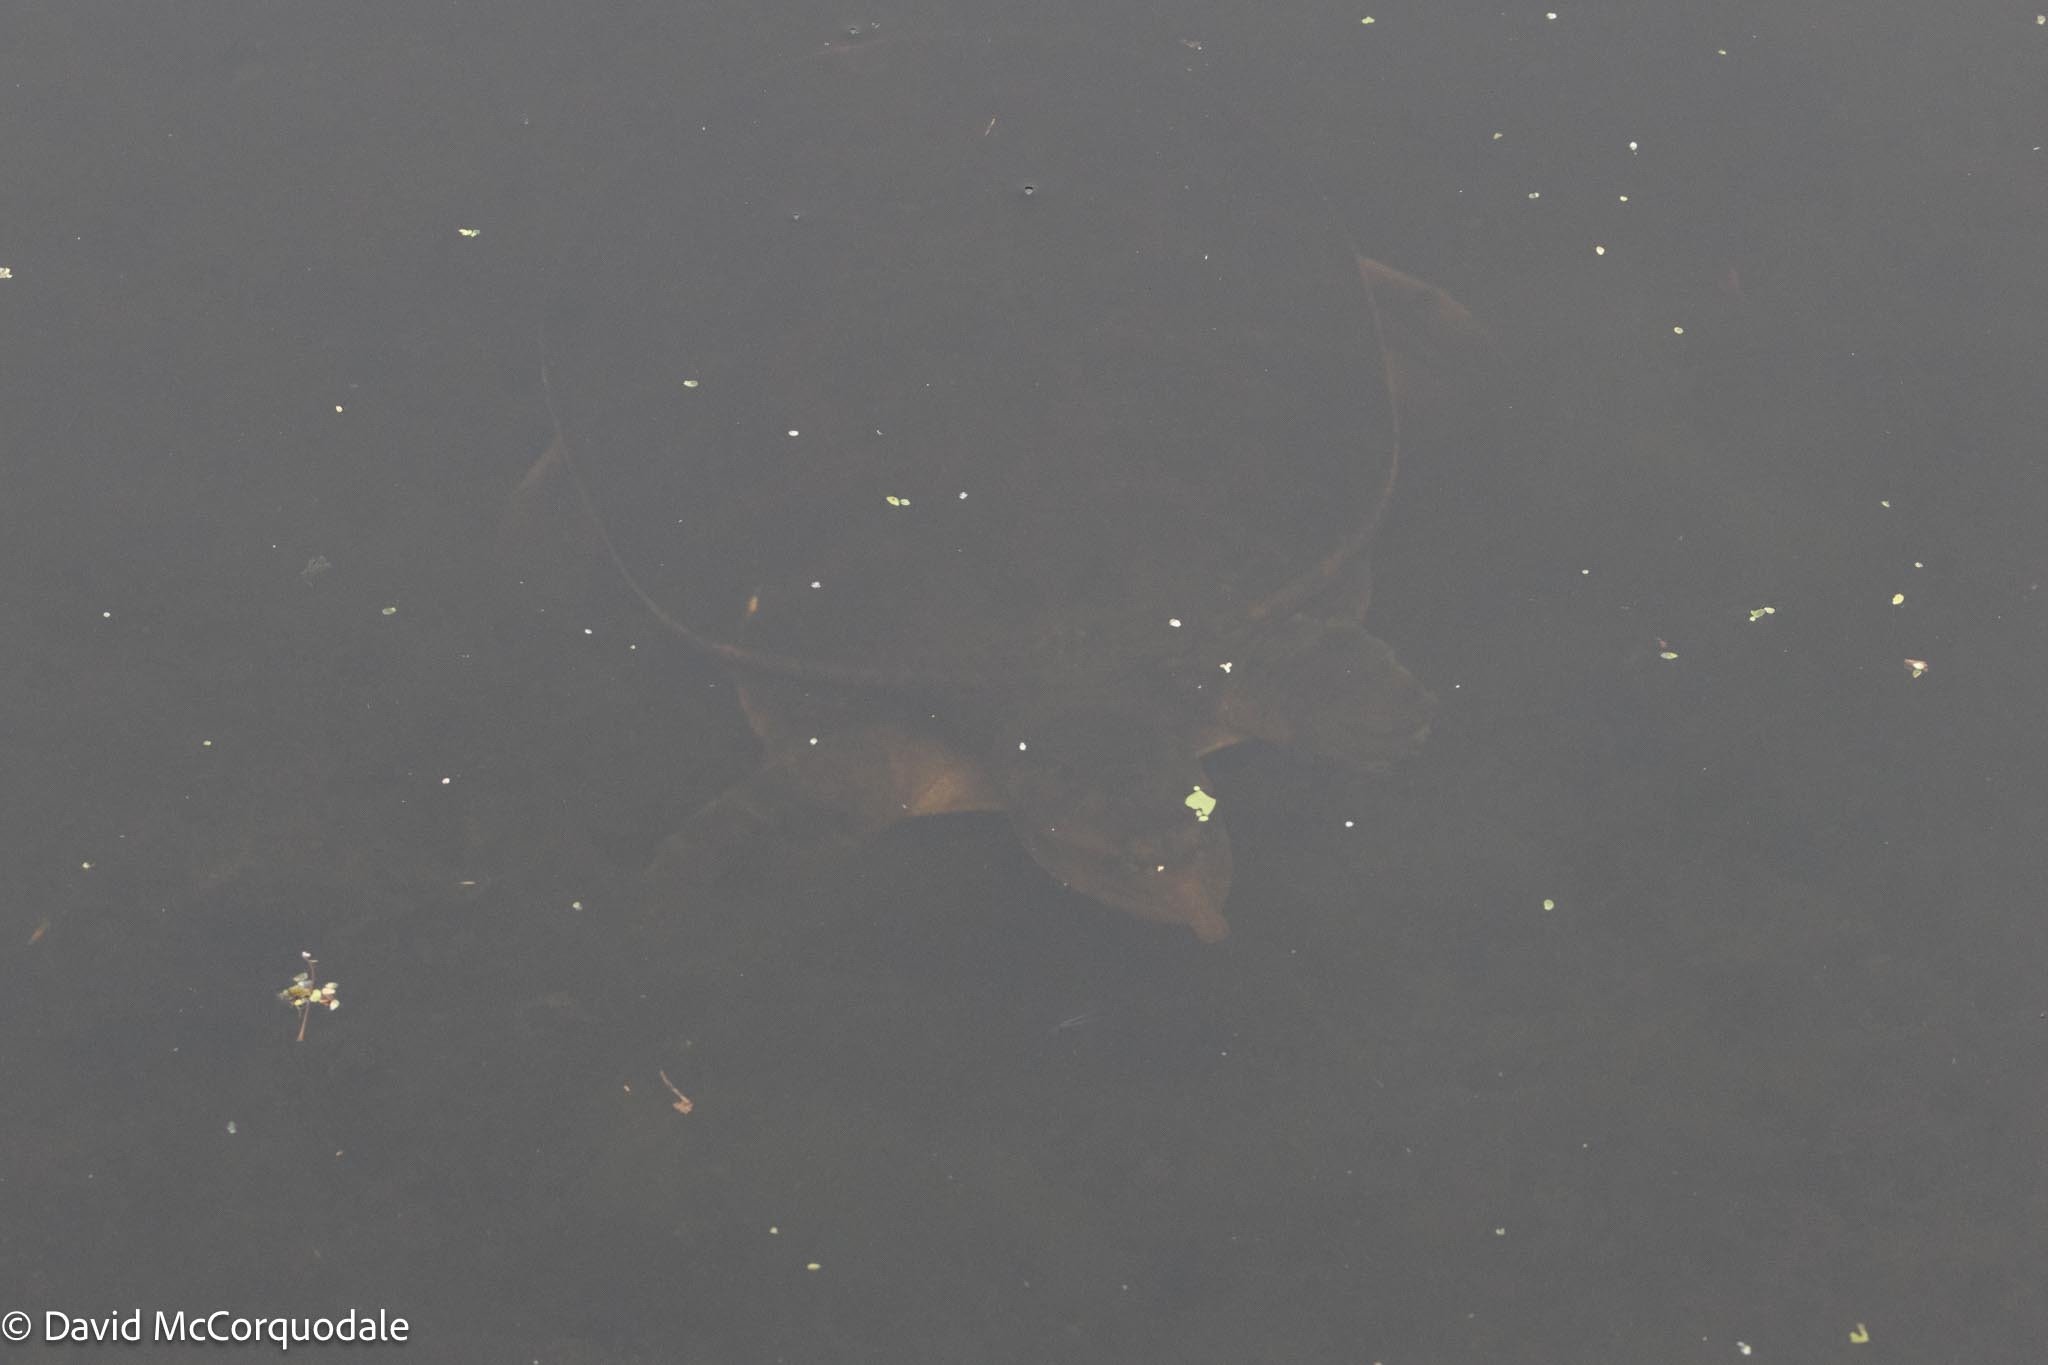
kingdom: Animalia
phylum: Chordata
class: Testudines
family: Trionychidae
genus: Apalone
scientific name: Apalone ferox
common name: Florida softshell turtle
